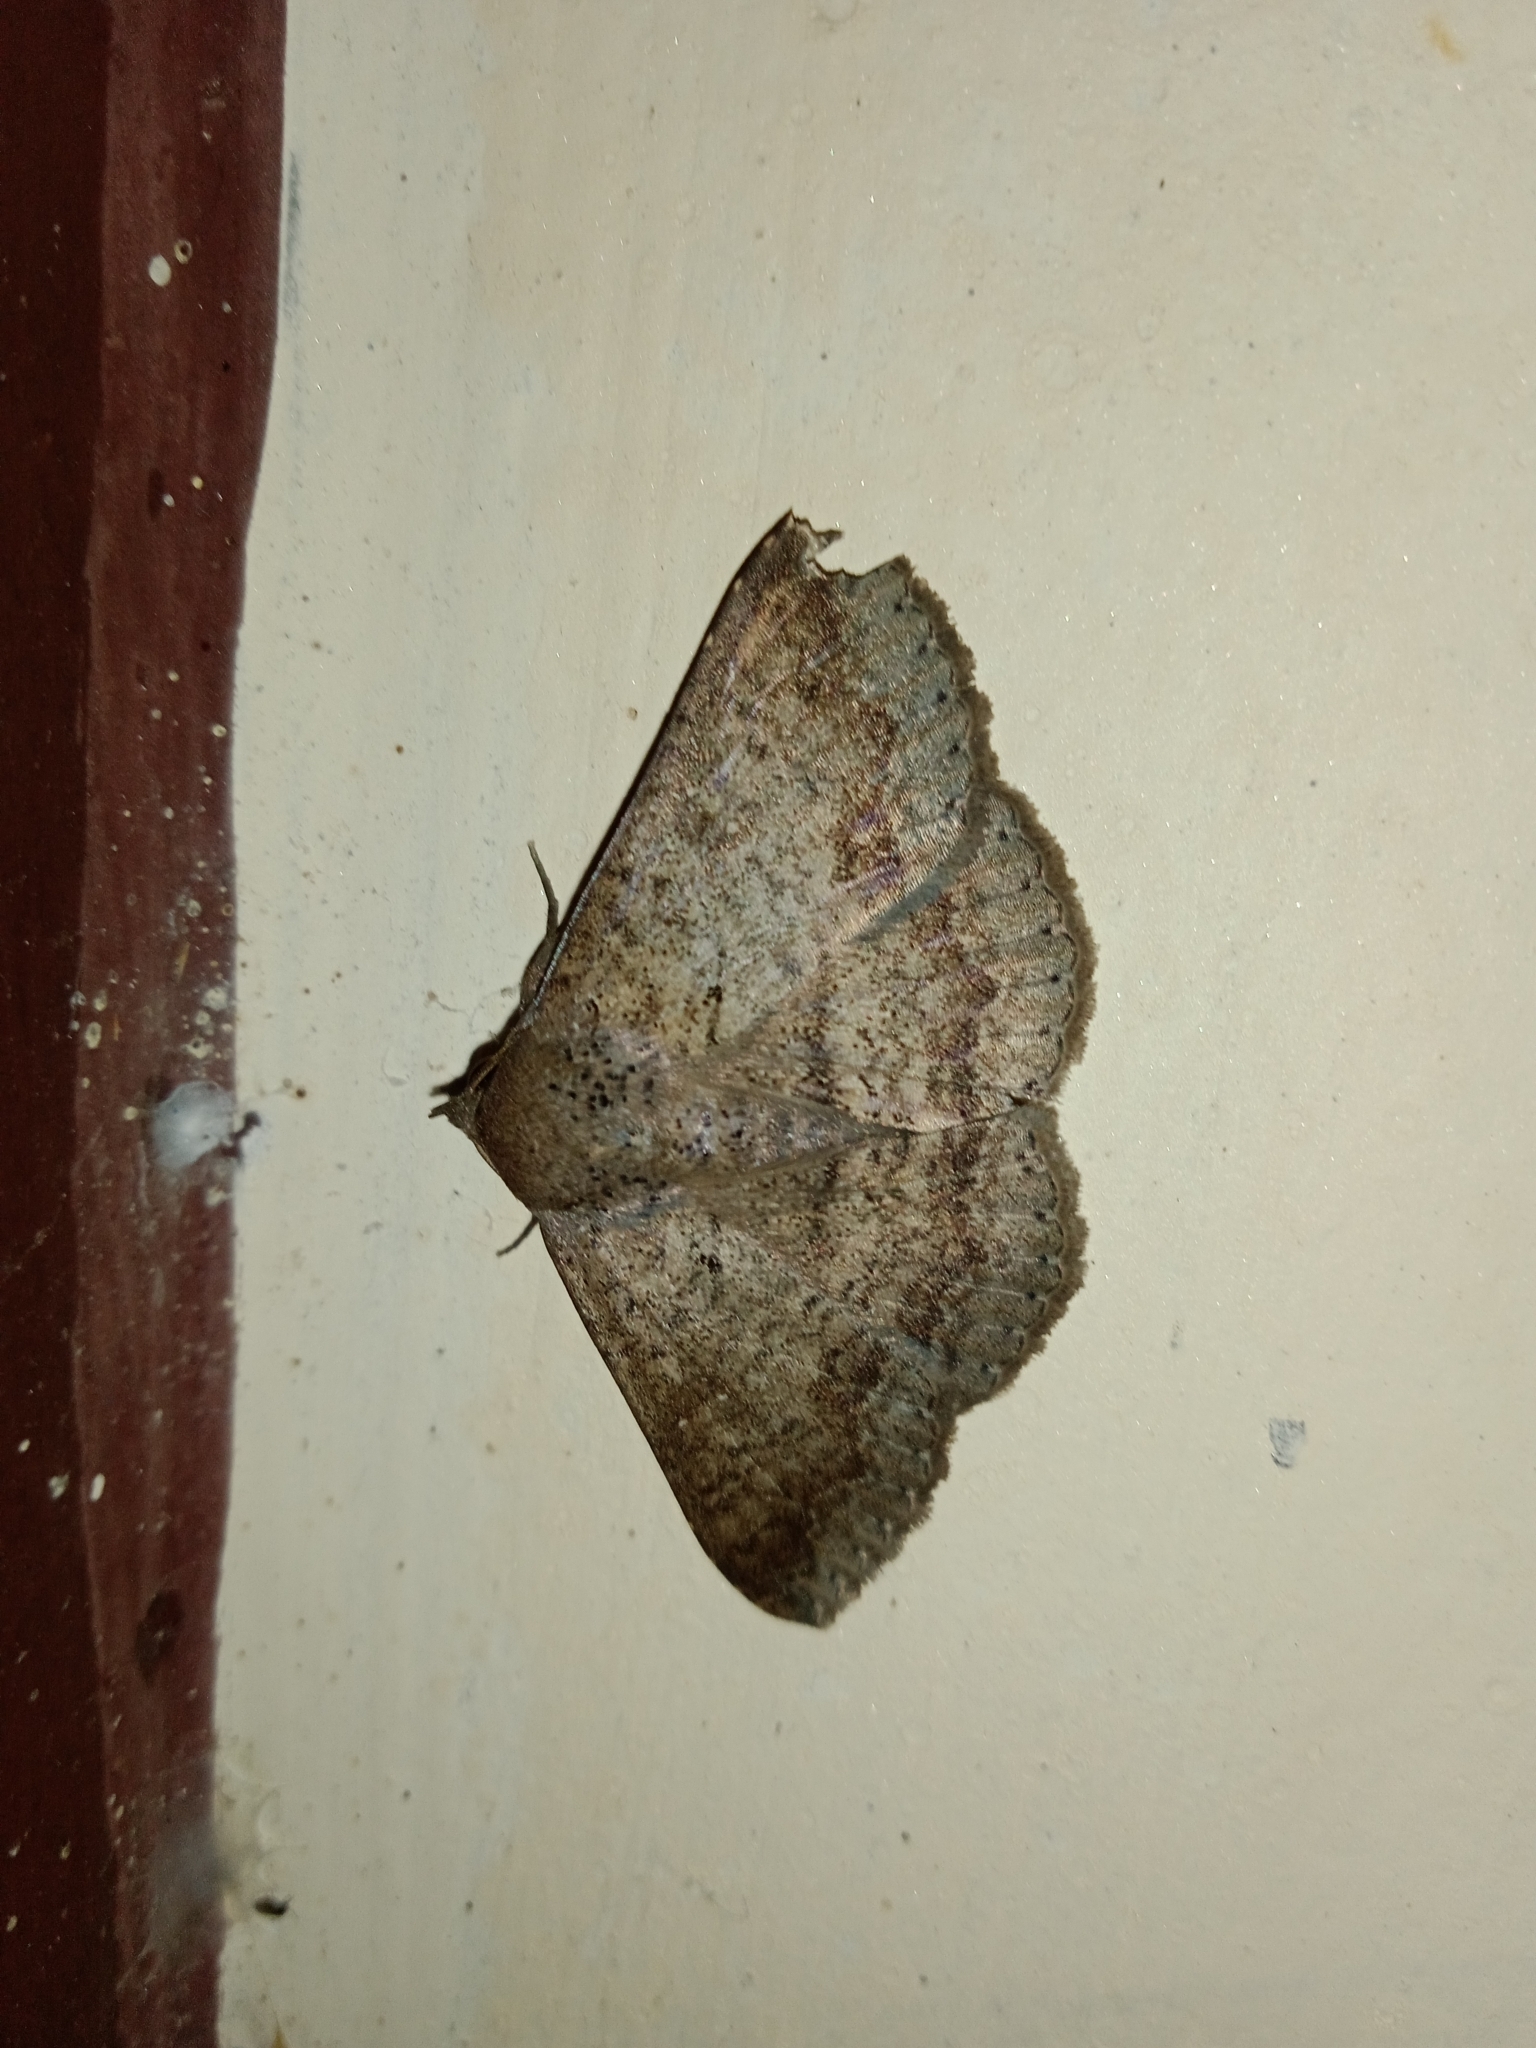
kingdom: Animalia
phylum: Arthropoda
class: Insecta
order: Lepidoptera
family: Erebidae
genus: Ericeia
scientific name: Ericeia inangulata
